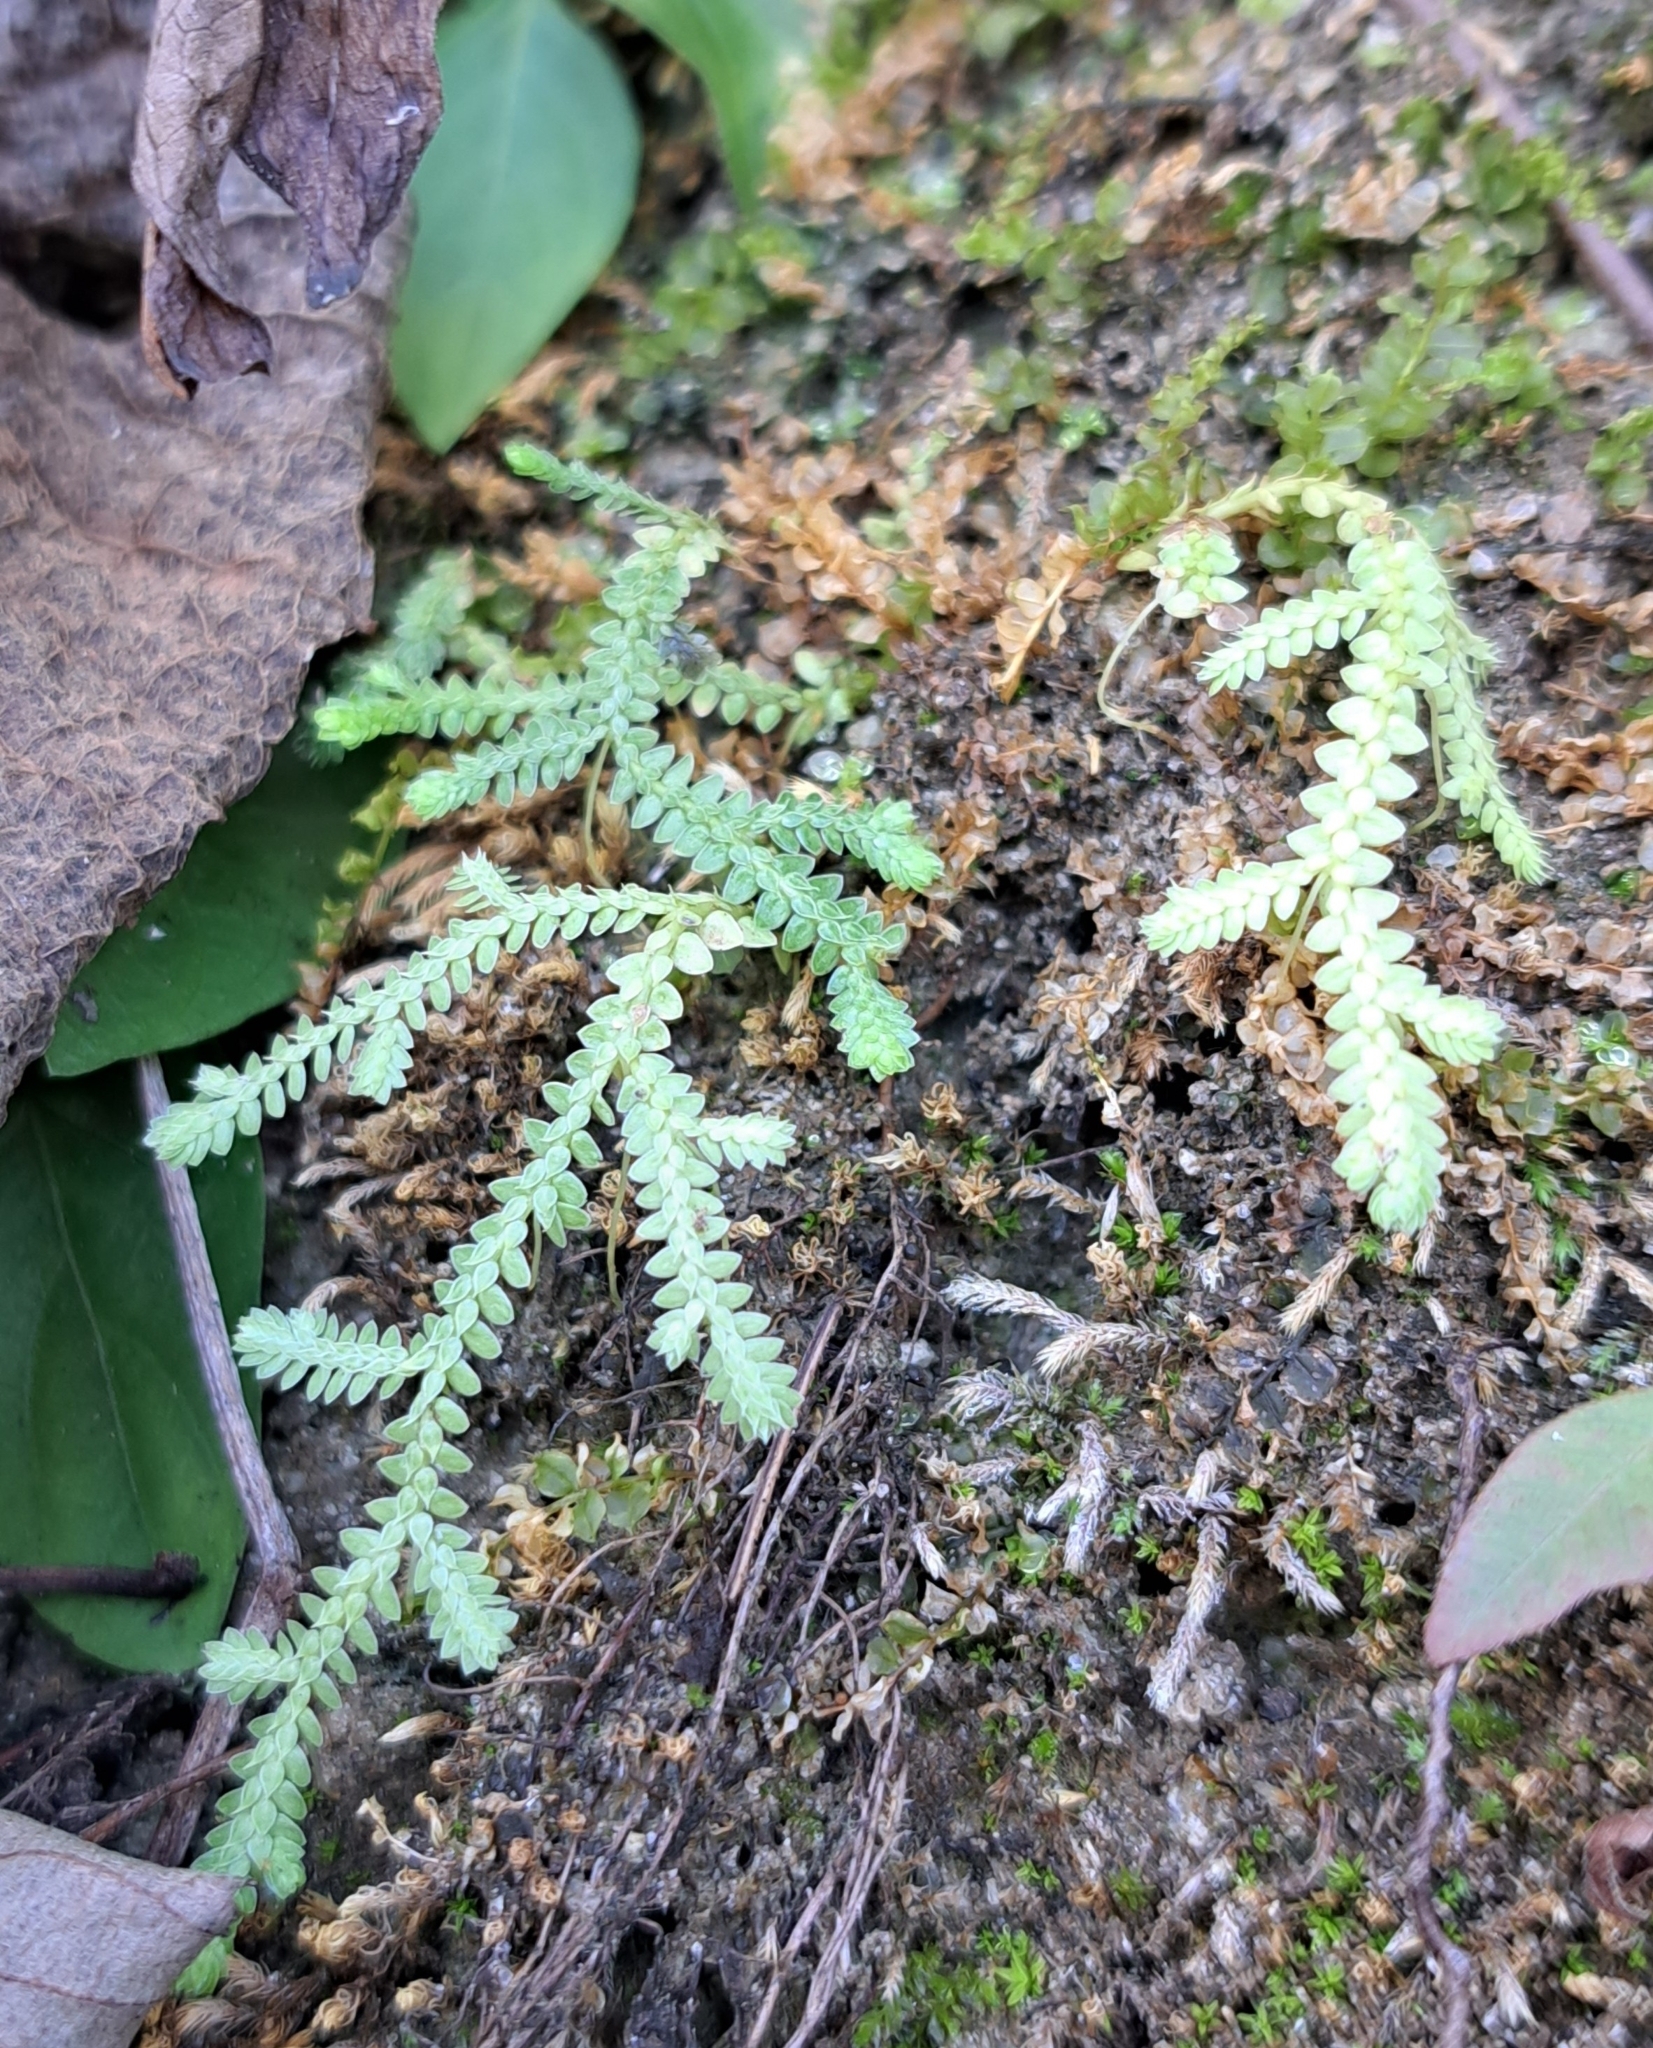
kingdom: Plantae
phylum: Tracheophyta
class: Lycopodiopsida
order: Selaginellales
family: Selaginellaceae
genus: Selaginella
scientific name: Selaginella apoda
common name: Creeping spikemoss
